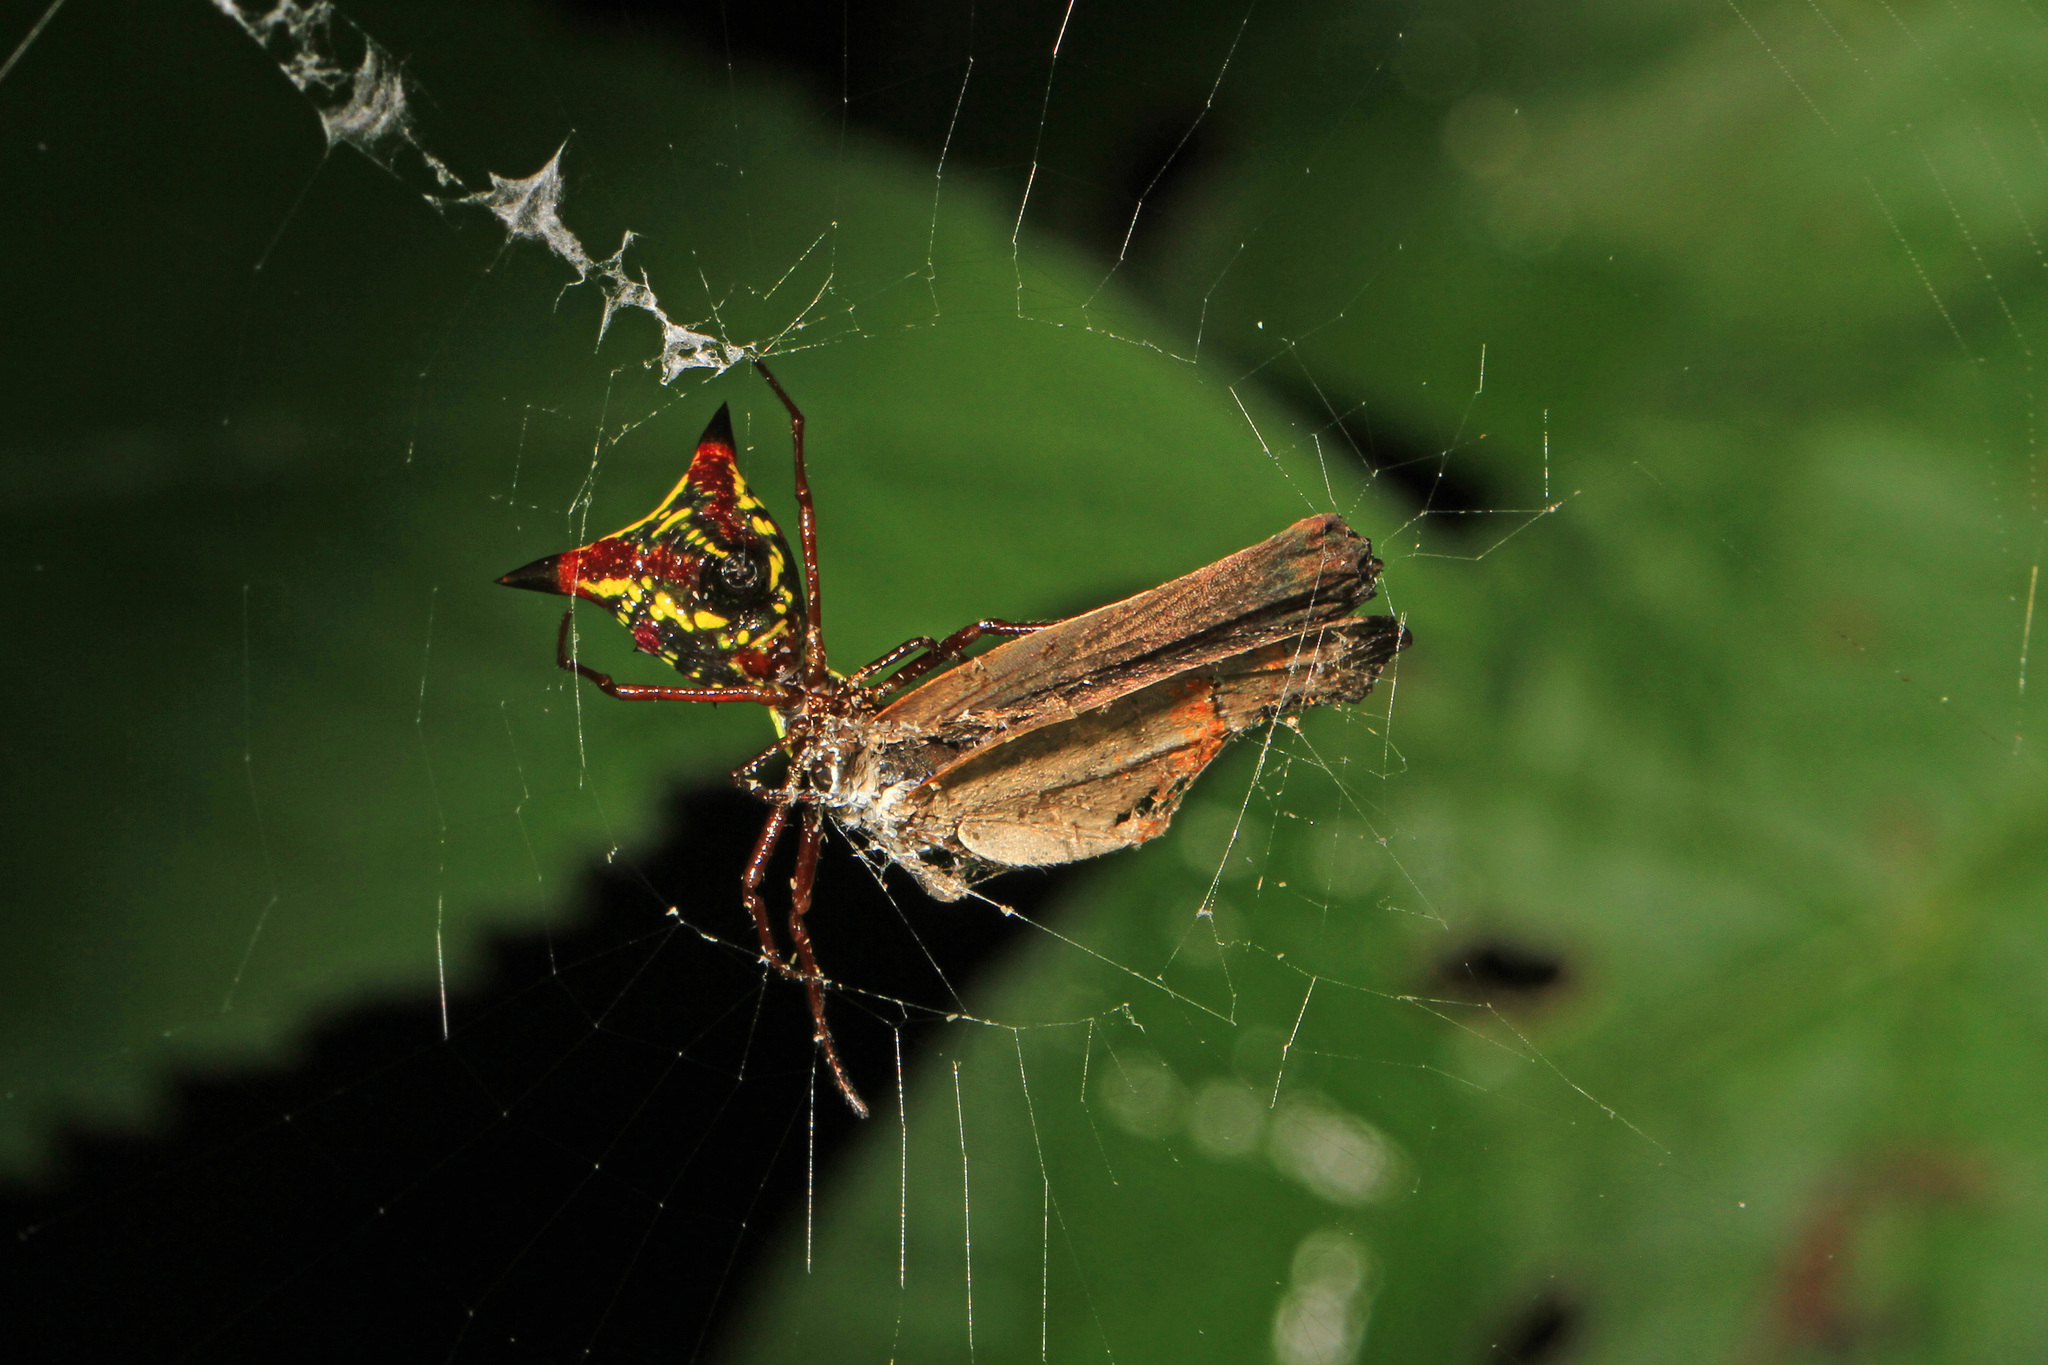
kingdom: Animalia
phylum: Arthropoda
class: Arachnida
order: Araneae
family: Araneidae
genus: Micrathena
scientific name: Micrathena sagittata
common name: Orb weavers
